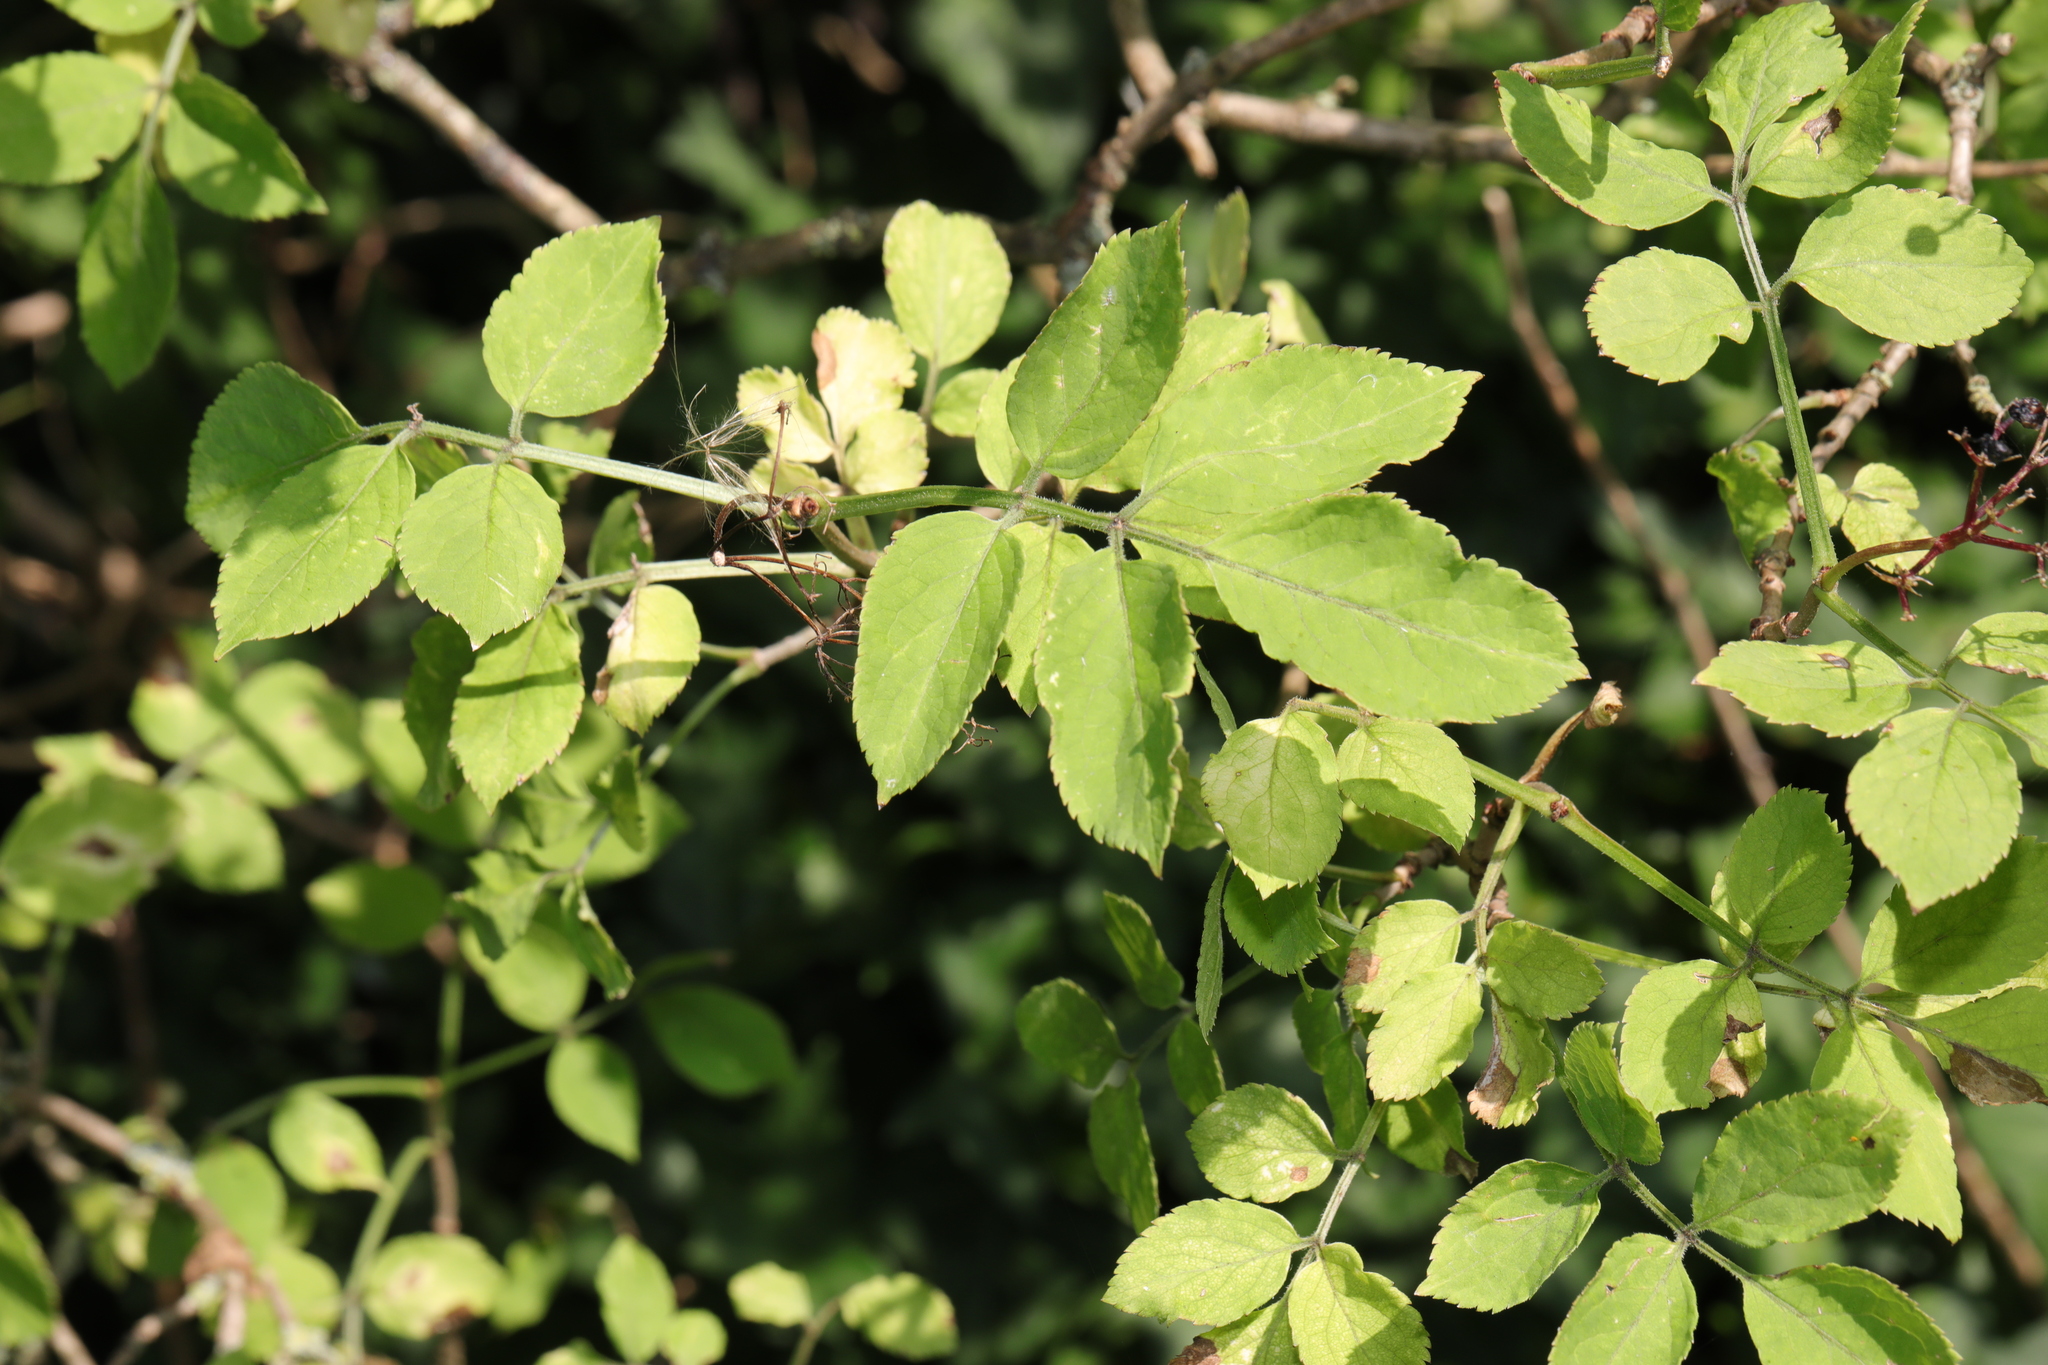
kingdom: Plantae
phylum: Tracheophyta
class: Magnoliopsida
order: Dipsacales
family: Viburnaceae
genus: Sambucus
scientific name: Sambucus nigra
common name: Elder
